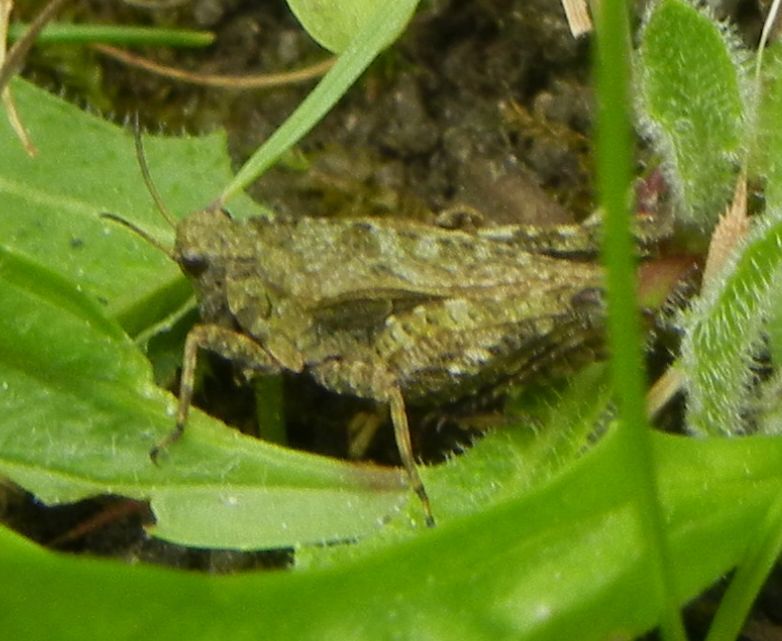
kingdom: Animalia
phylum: Arthropoda
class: Insecta
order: Orthoptera
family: Tetrigidae
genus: Tetrix
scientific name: Tetrix undulata
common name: Common groundhopper
